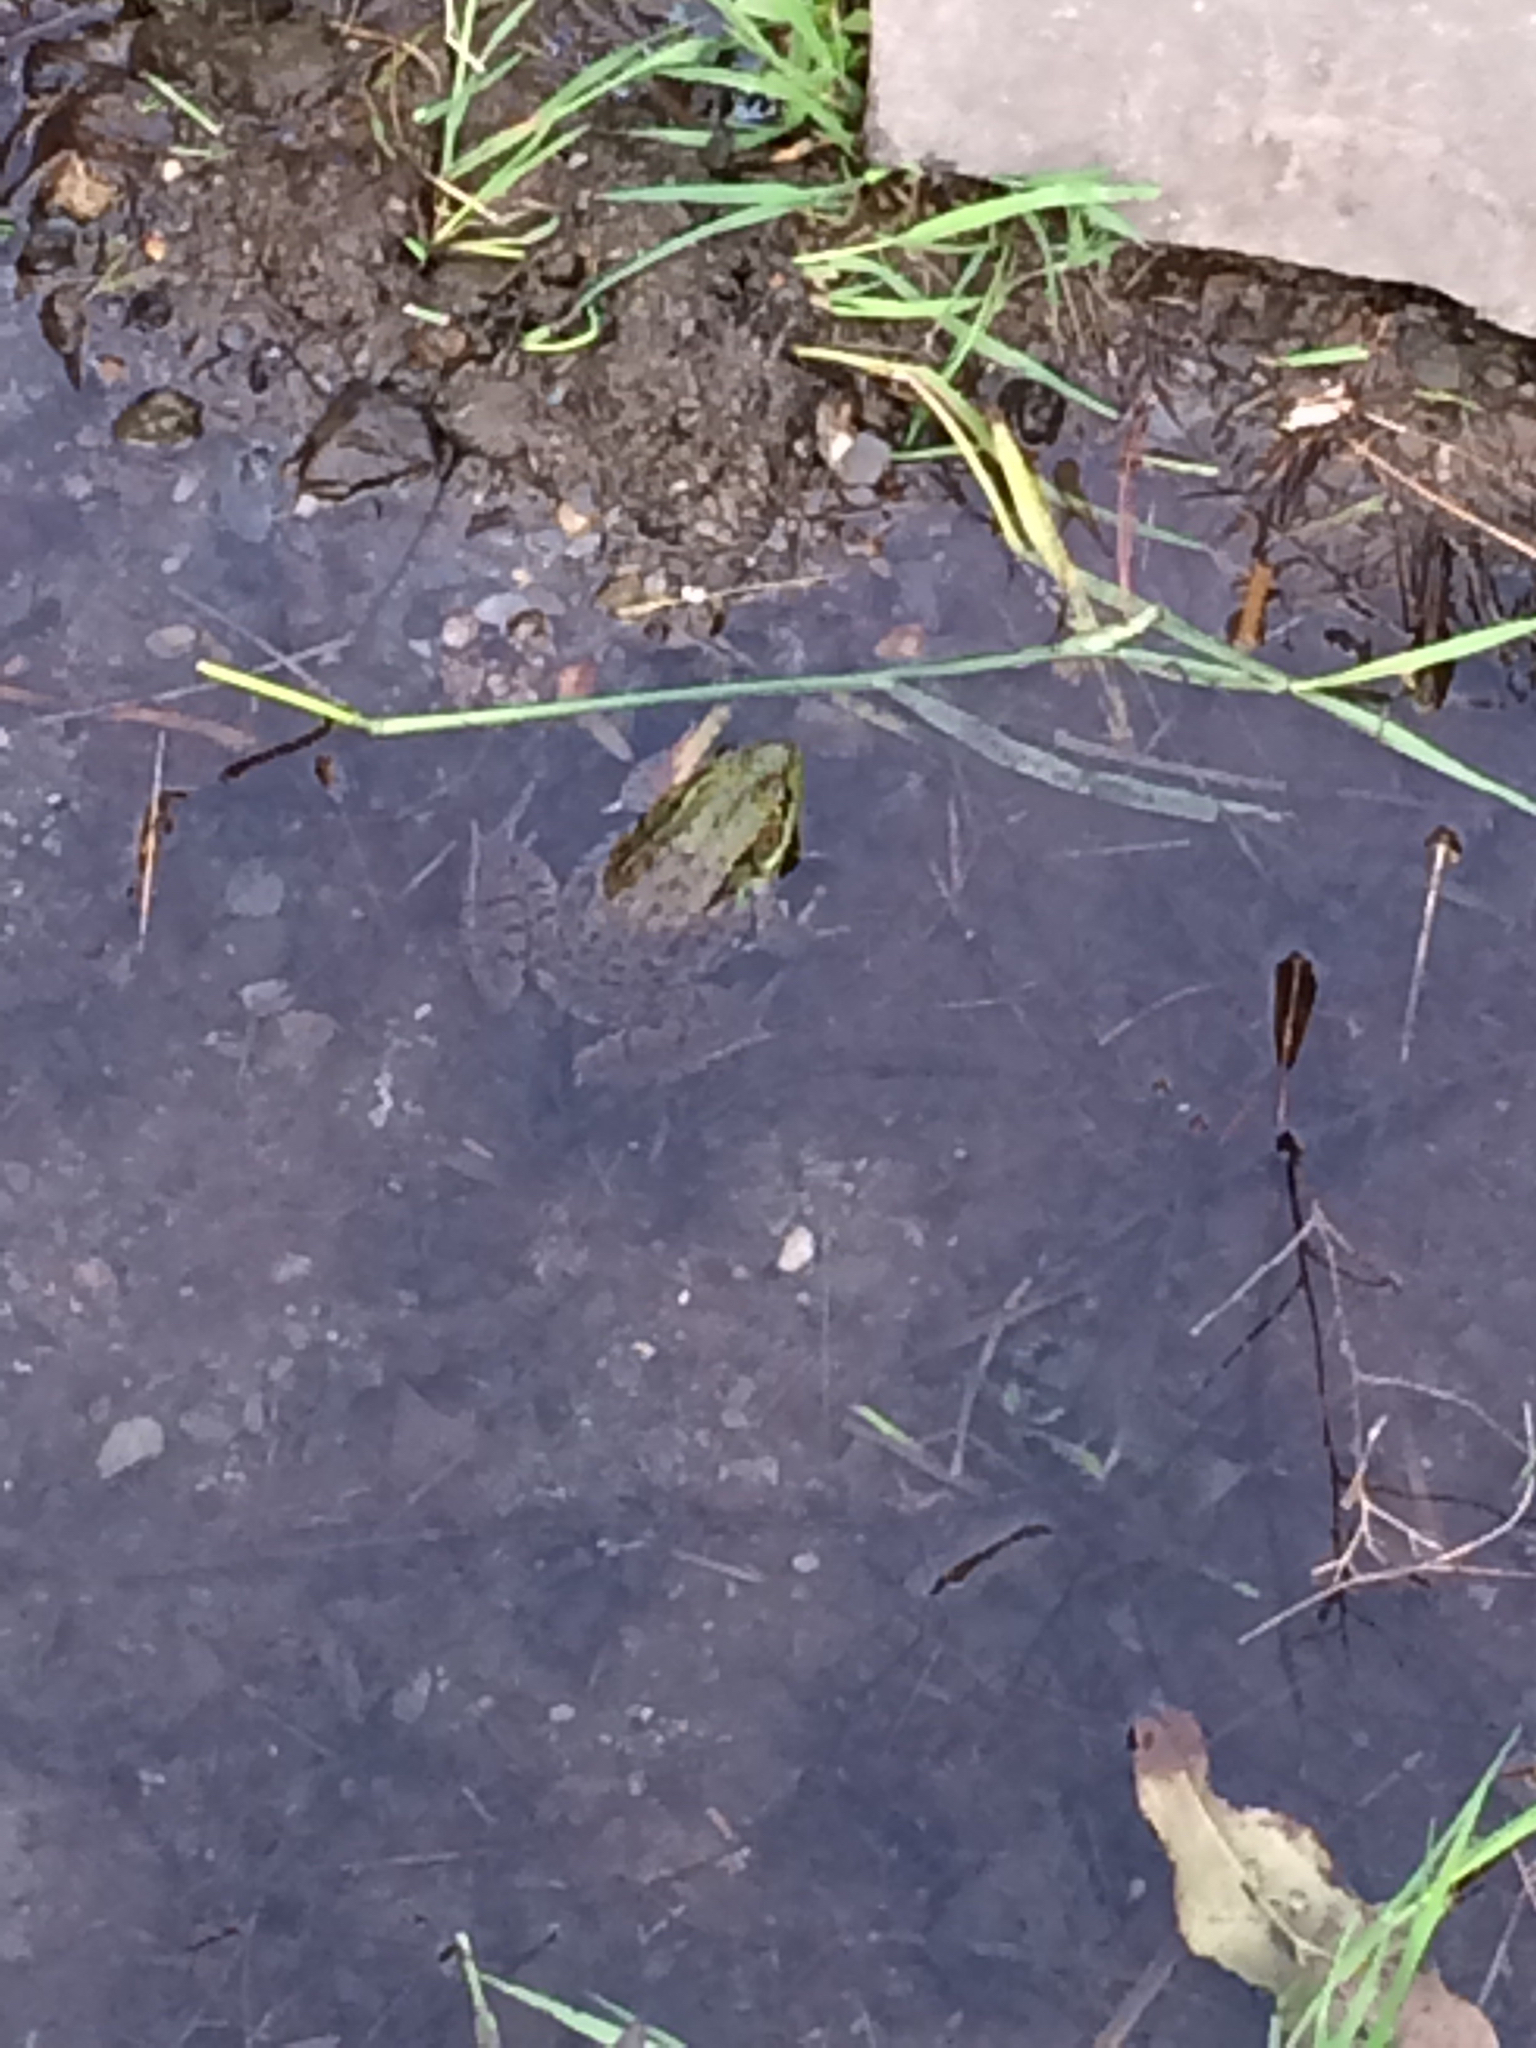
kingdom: Animalia
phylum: Chordata
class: Amphibia
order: Anura
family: Ranidae
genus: Lithobates
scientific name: Lithobates clamitans
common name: Green frog
